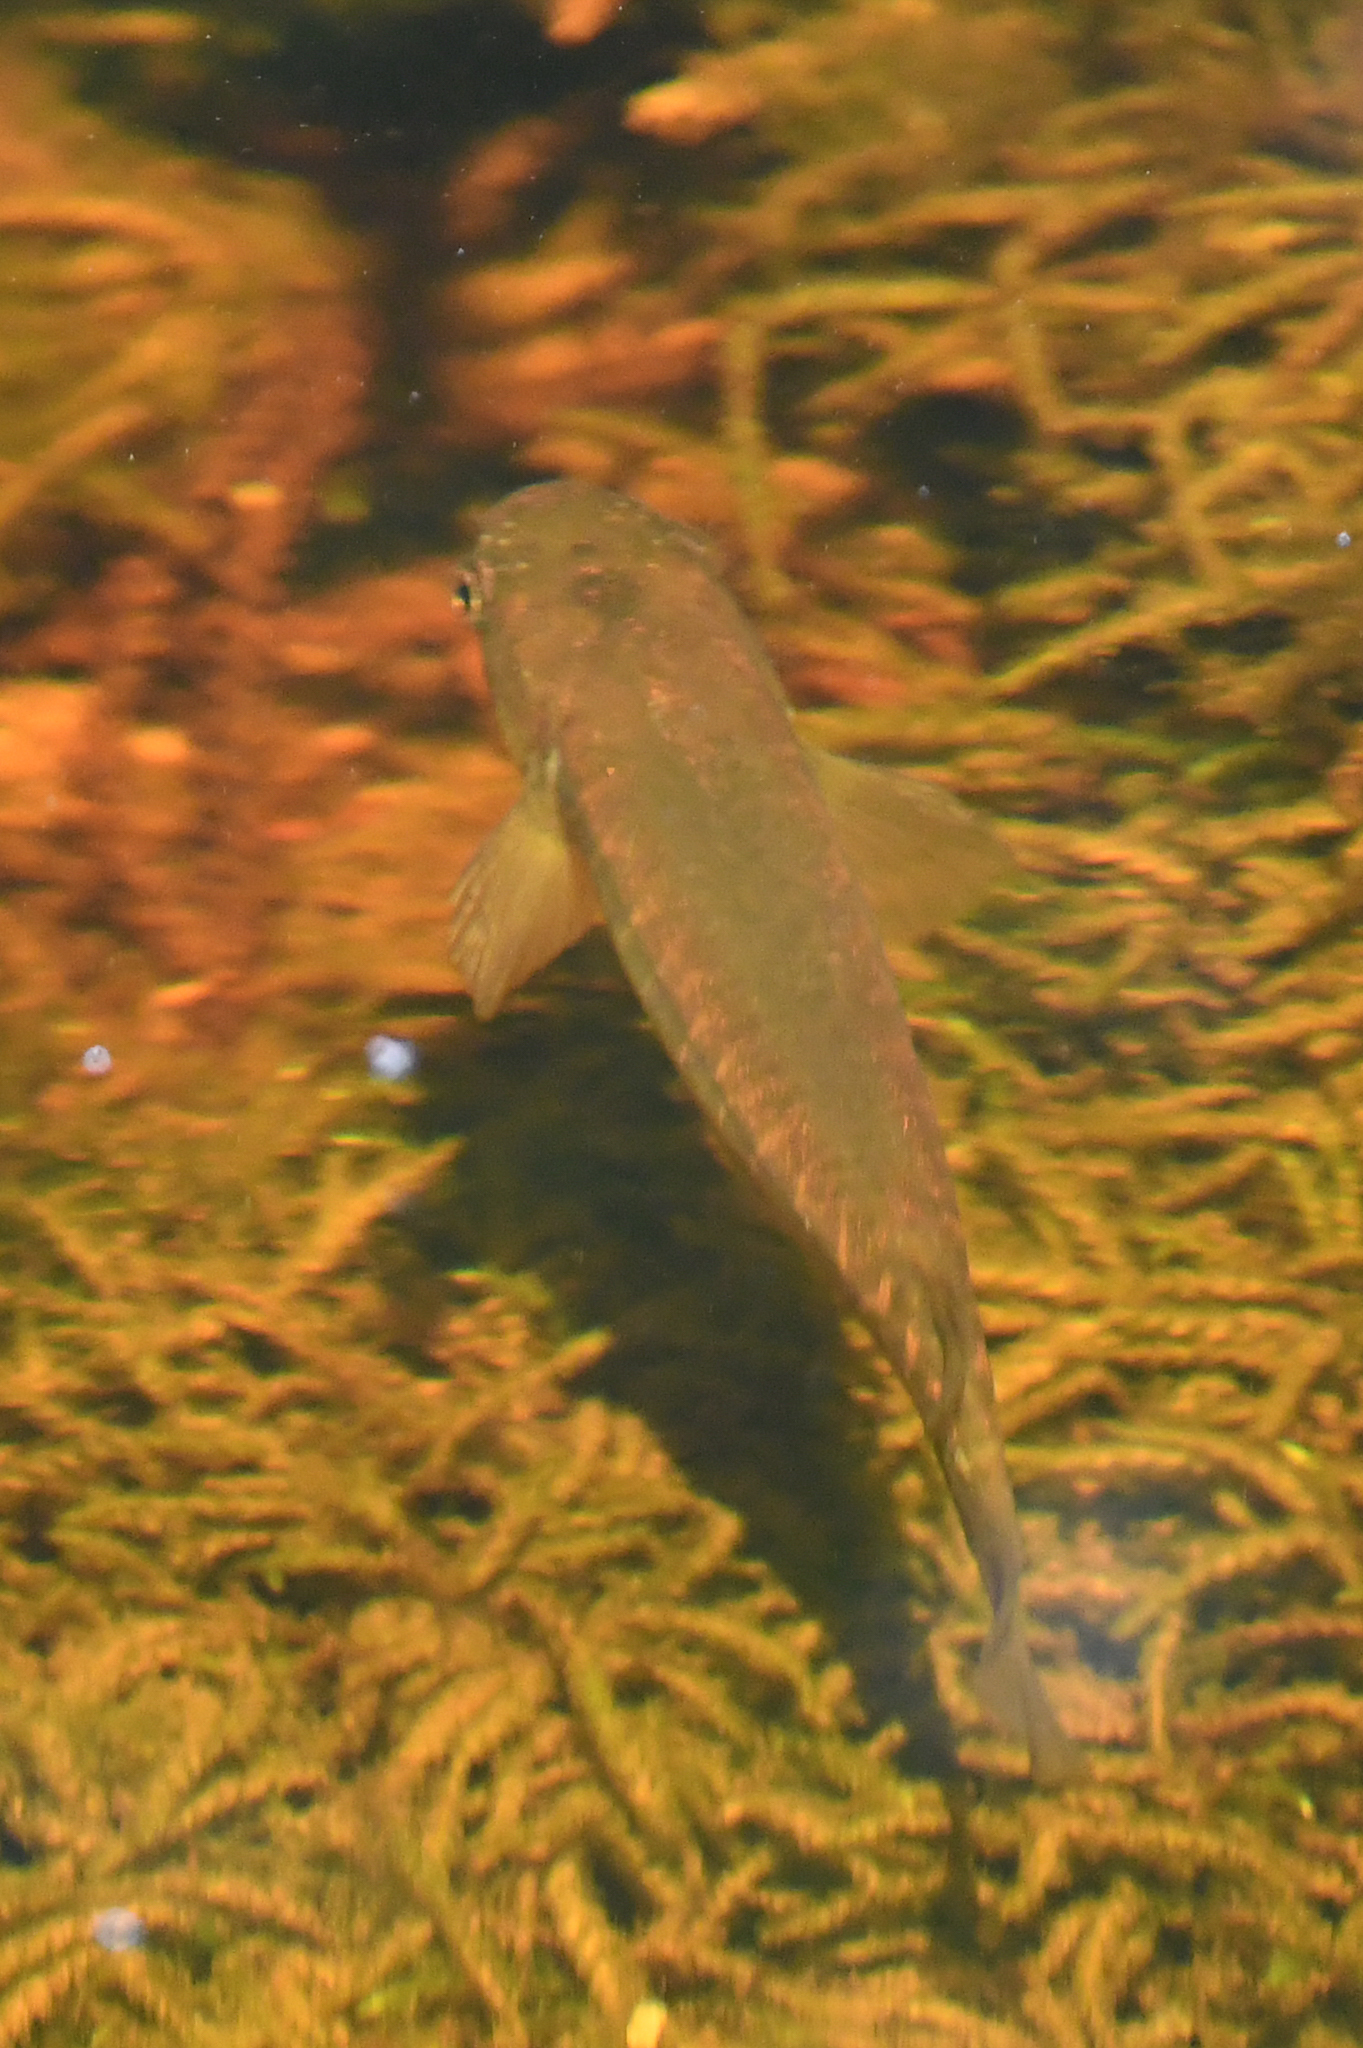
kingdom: Animalia
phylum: Chordata
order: Osmeriformes
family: Galaxiidae
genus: Galaxias
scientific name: Galaxias fasciatus
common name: Banded kokopu
